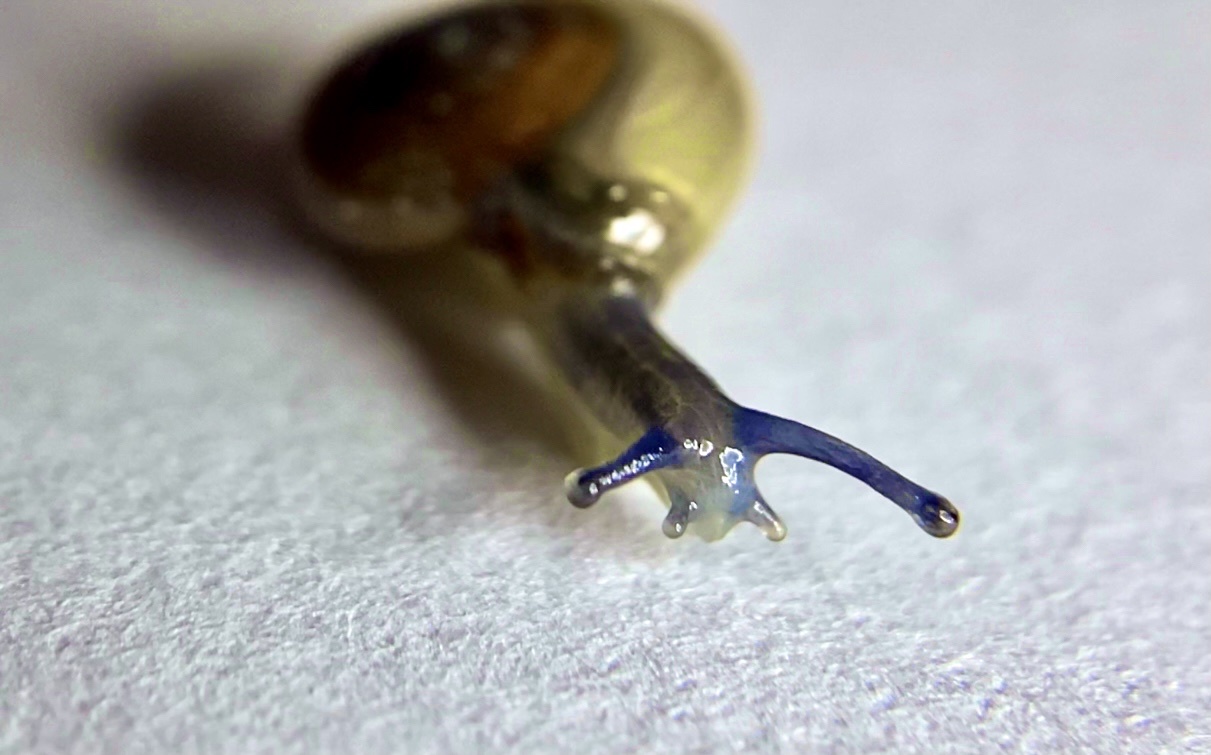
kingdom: Animalia
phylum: Mollusca
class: Gastropoda
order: Stylommatophora
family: Oxychilidae
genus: Oxychilus
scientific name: Oxychilus draparnaudi
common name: Draparnaud's glass snail
